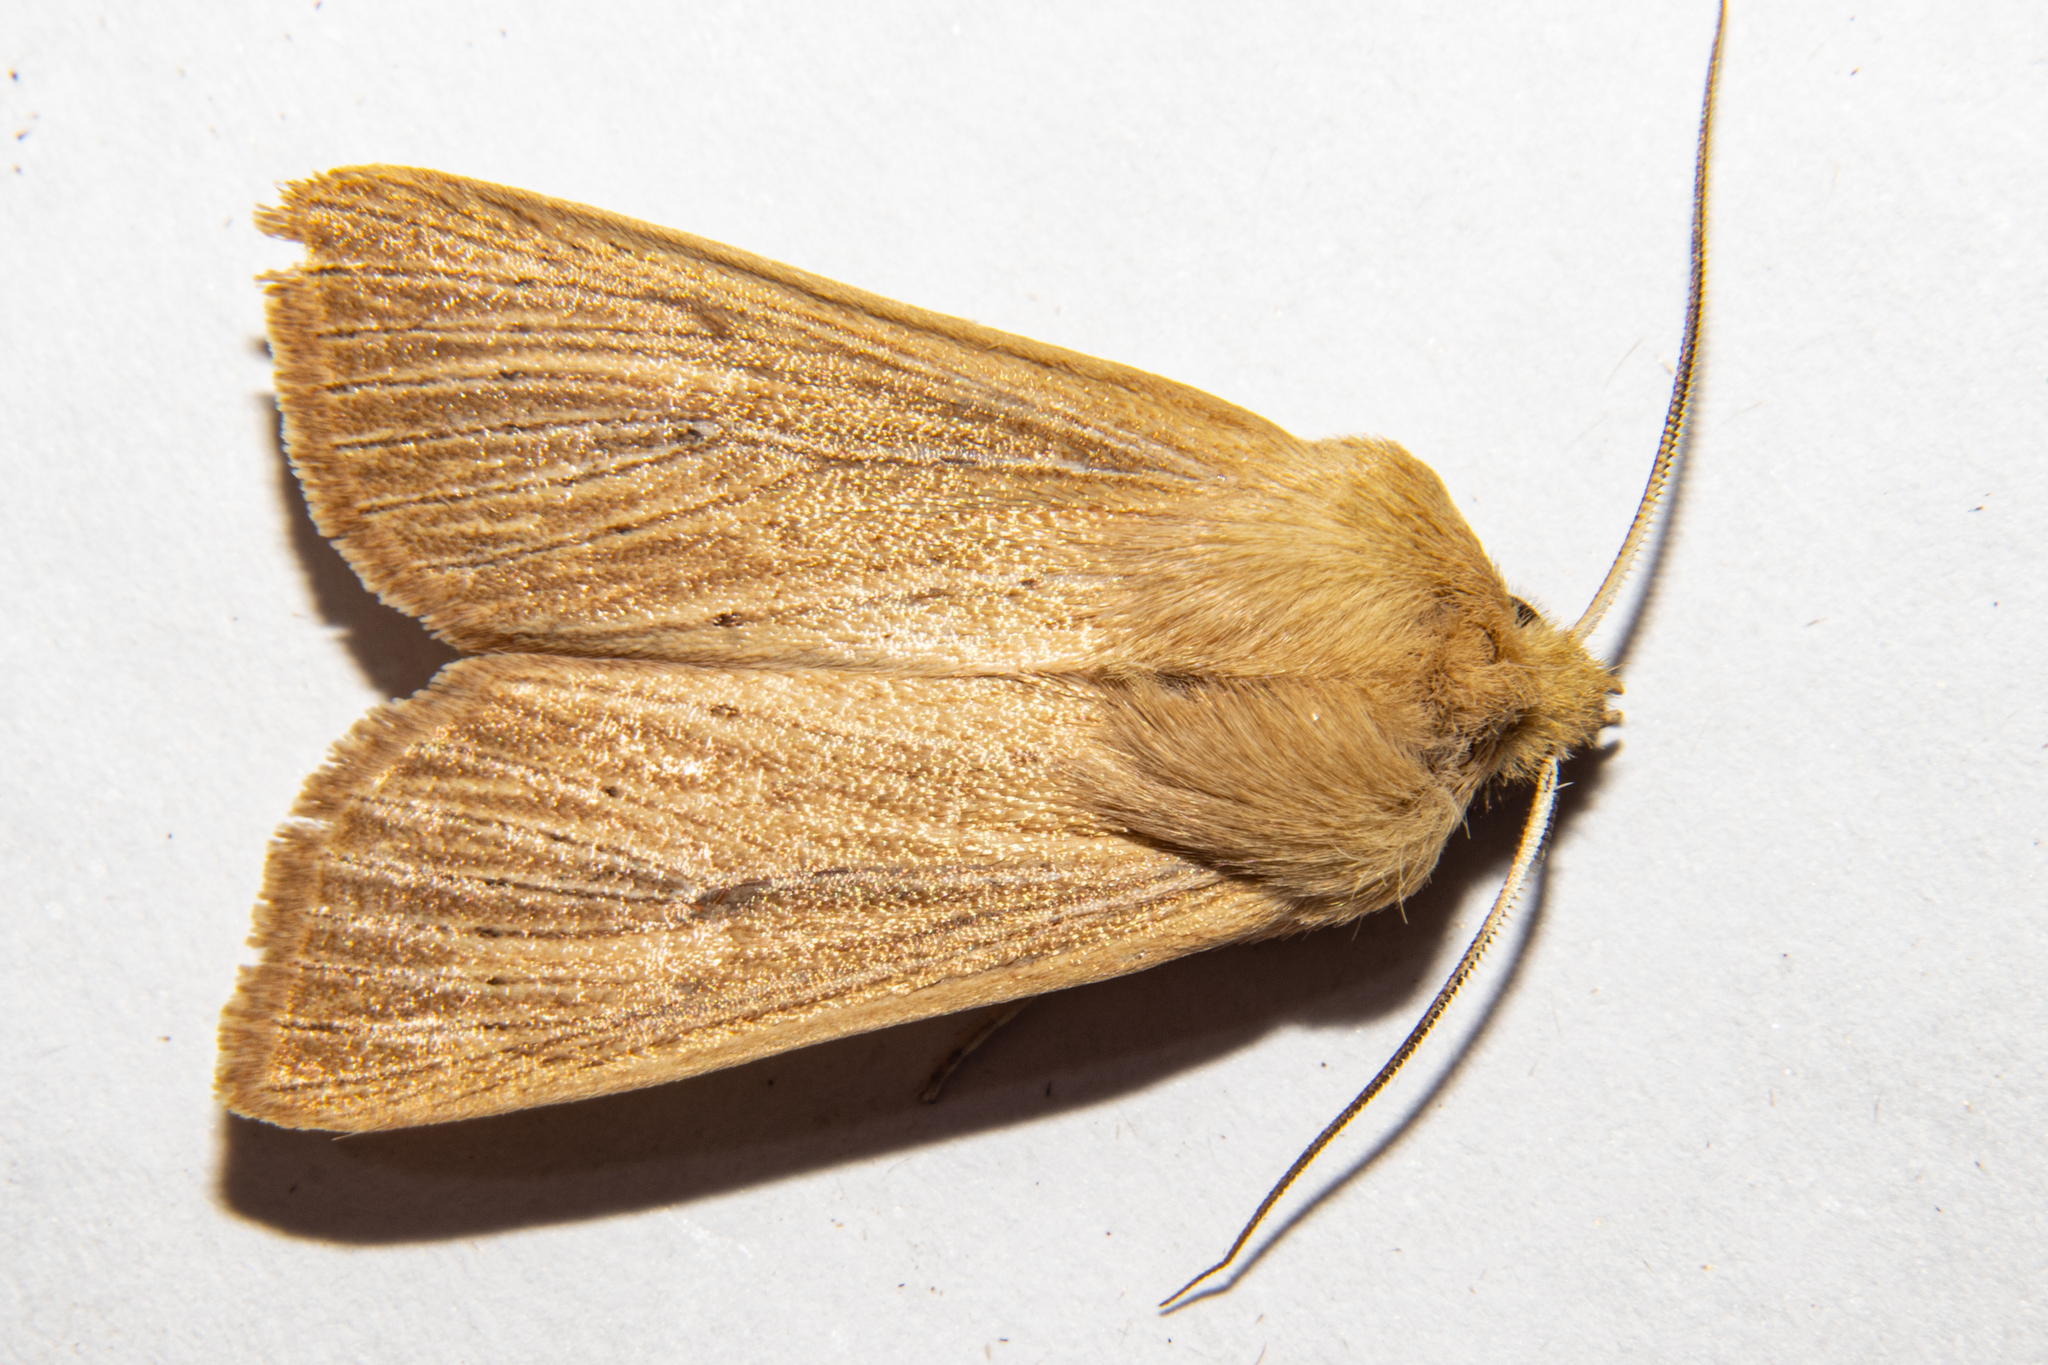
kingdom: Animalia
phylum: Arthropoda
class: Insecta
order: Lepidoptera
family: Noctuidae
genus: Ichneutica
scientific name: Ichneutica arotis
